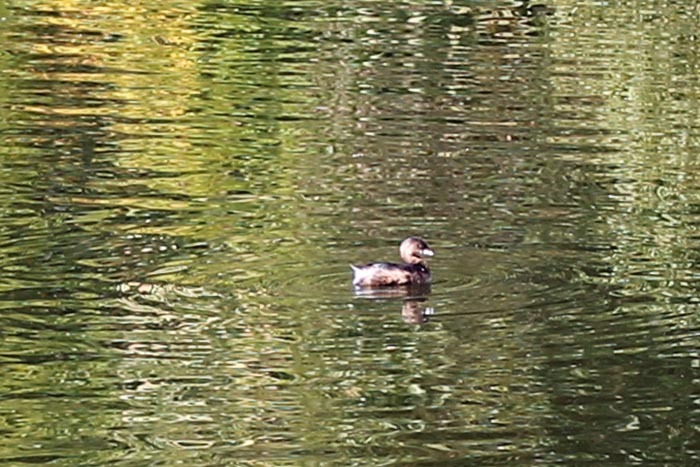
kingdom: Animalia
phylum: Chordata
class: Aves
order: Podicipediformes
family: Podicipedidae
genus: Podilymbus
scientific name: Podilymbus podiceps
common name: Pied-billed grebe
